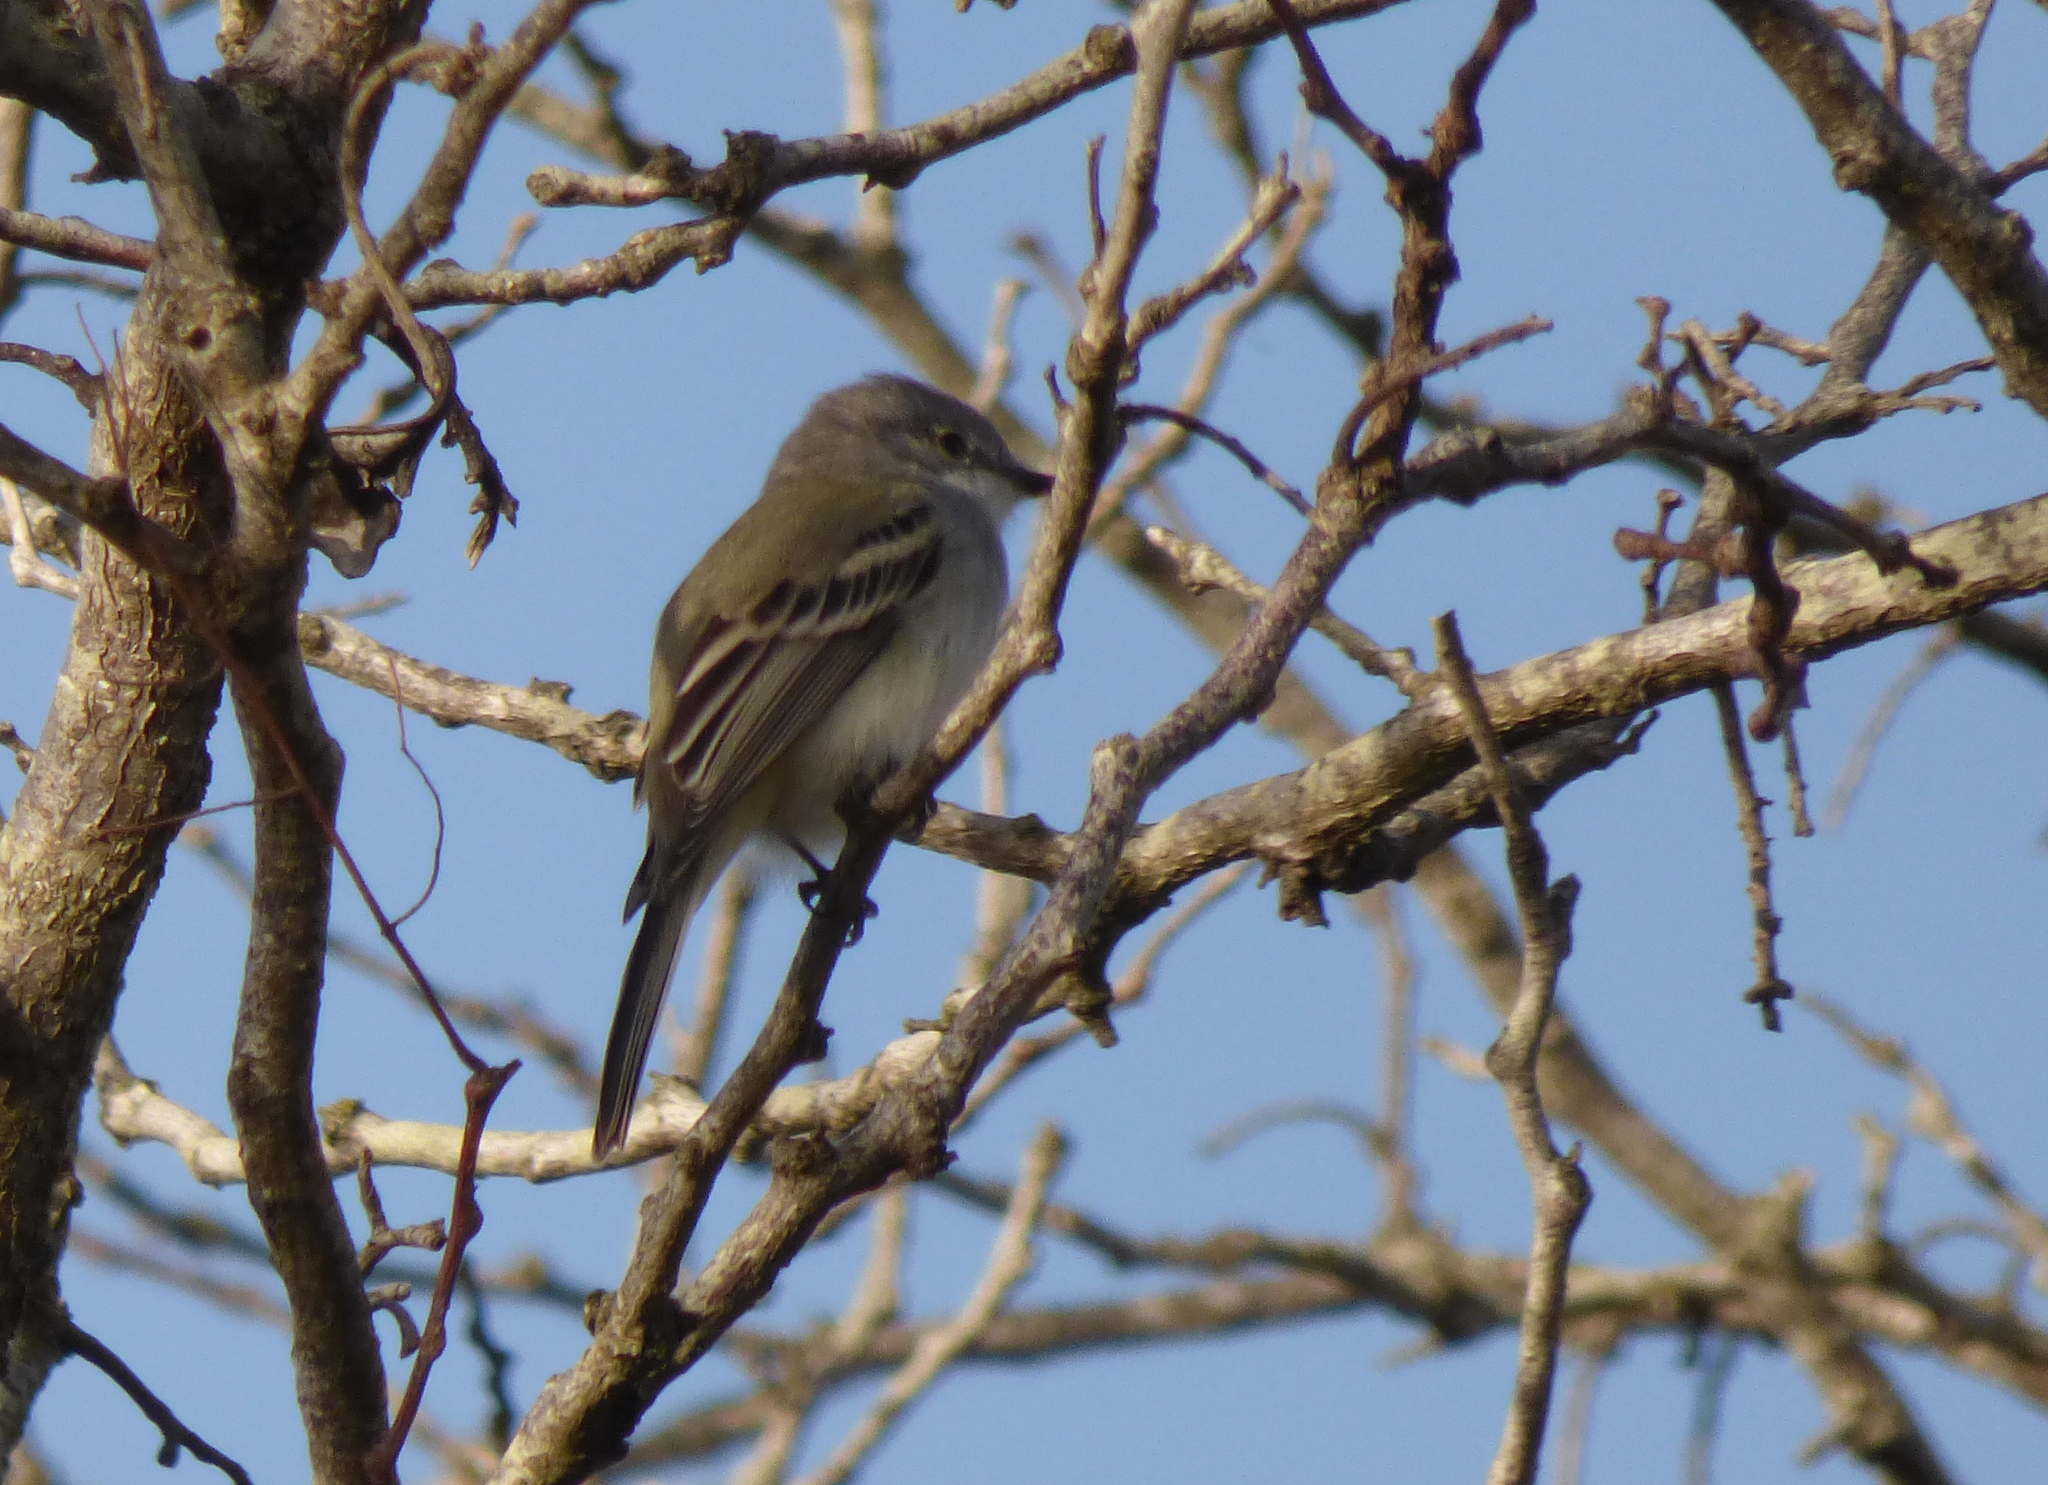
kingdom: Animalia
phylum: Chordata
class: Aves
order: Passeriformes
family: Tyrannidae
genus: Suiriri
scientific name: Suiriri suiriri
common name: Suiriri flycatcher
